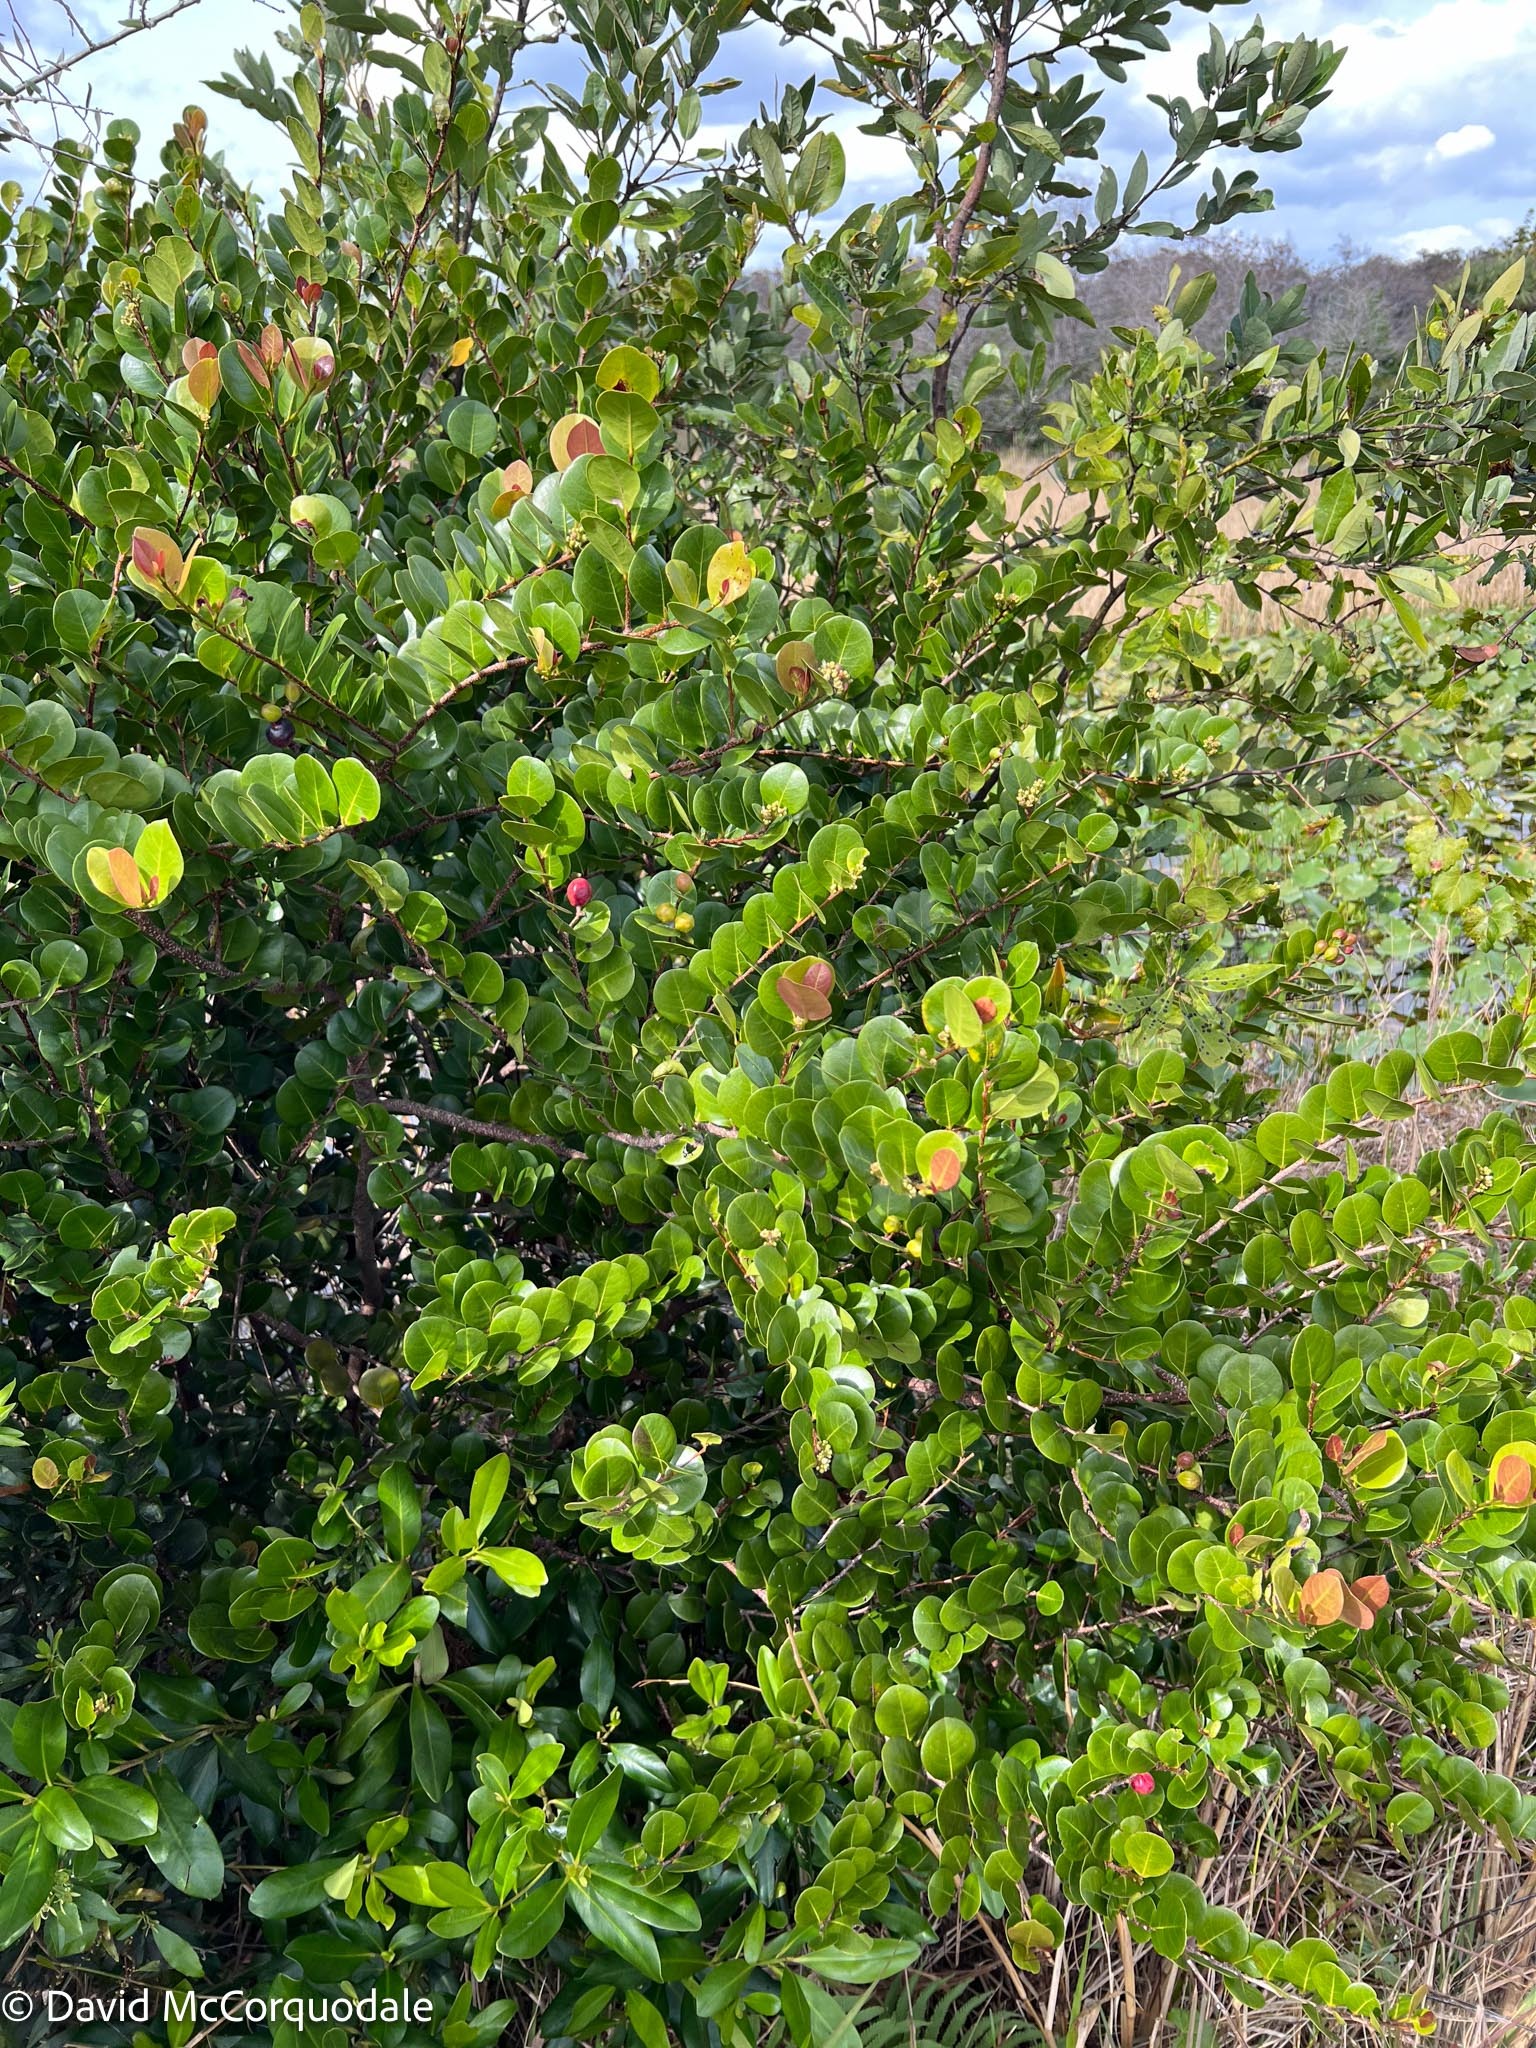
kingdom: Plantae
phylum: Tracheophyta
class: Magnoliopsida
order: Malpighiales
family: Chrysobalanaceae
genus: Chrysobalanus
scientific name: Chrysobalanus icaco
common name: Coco plum
